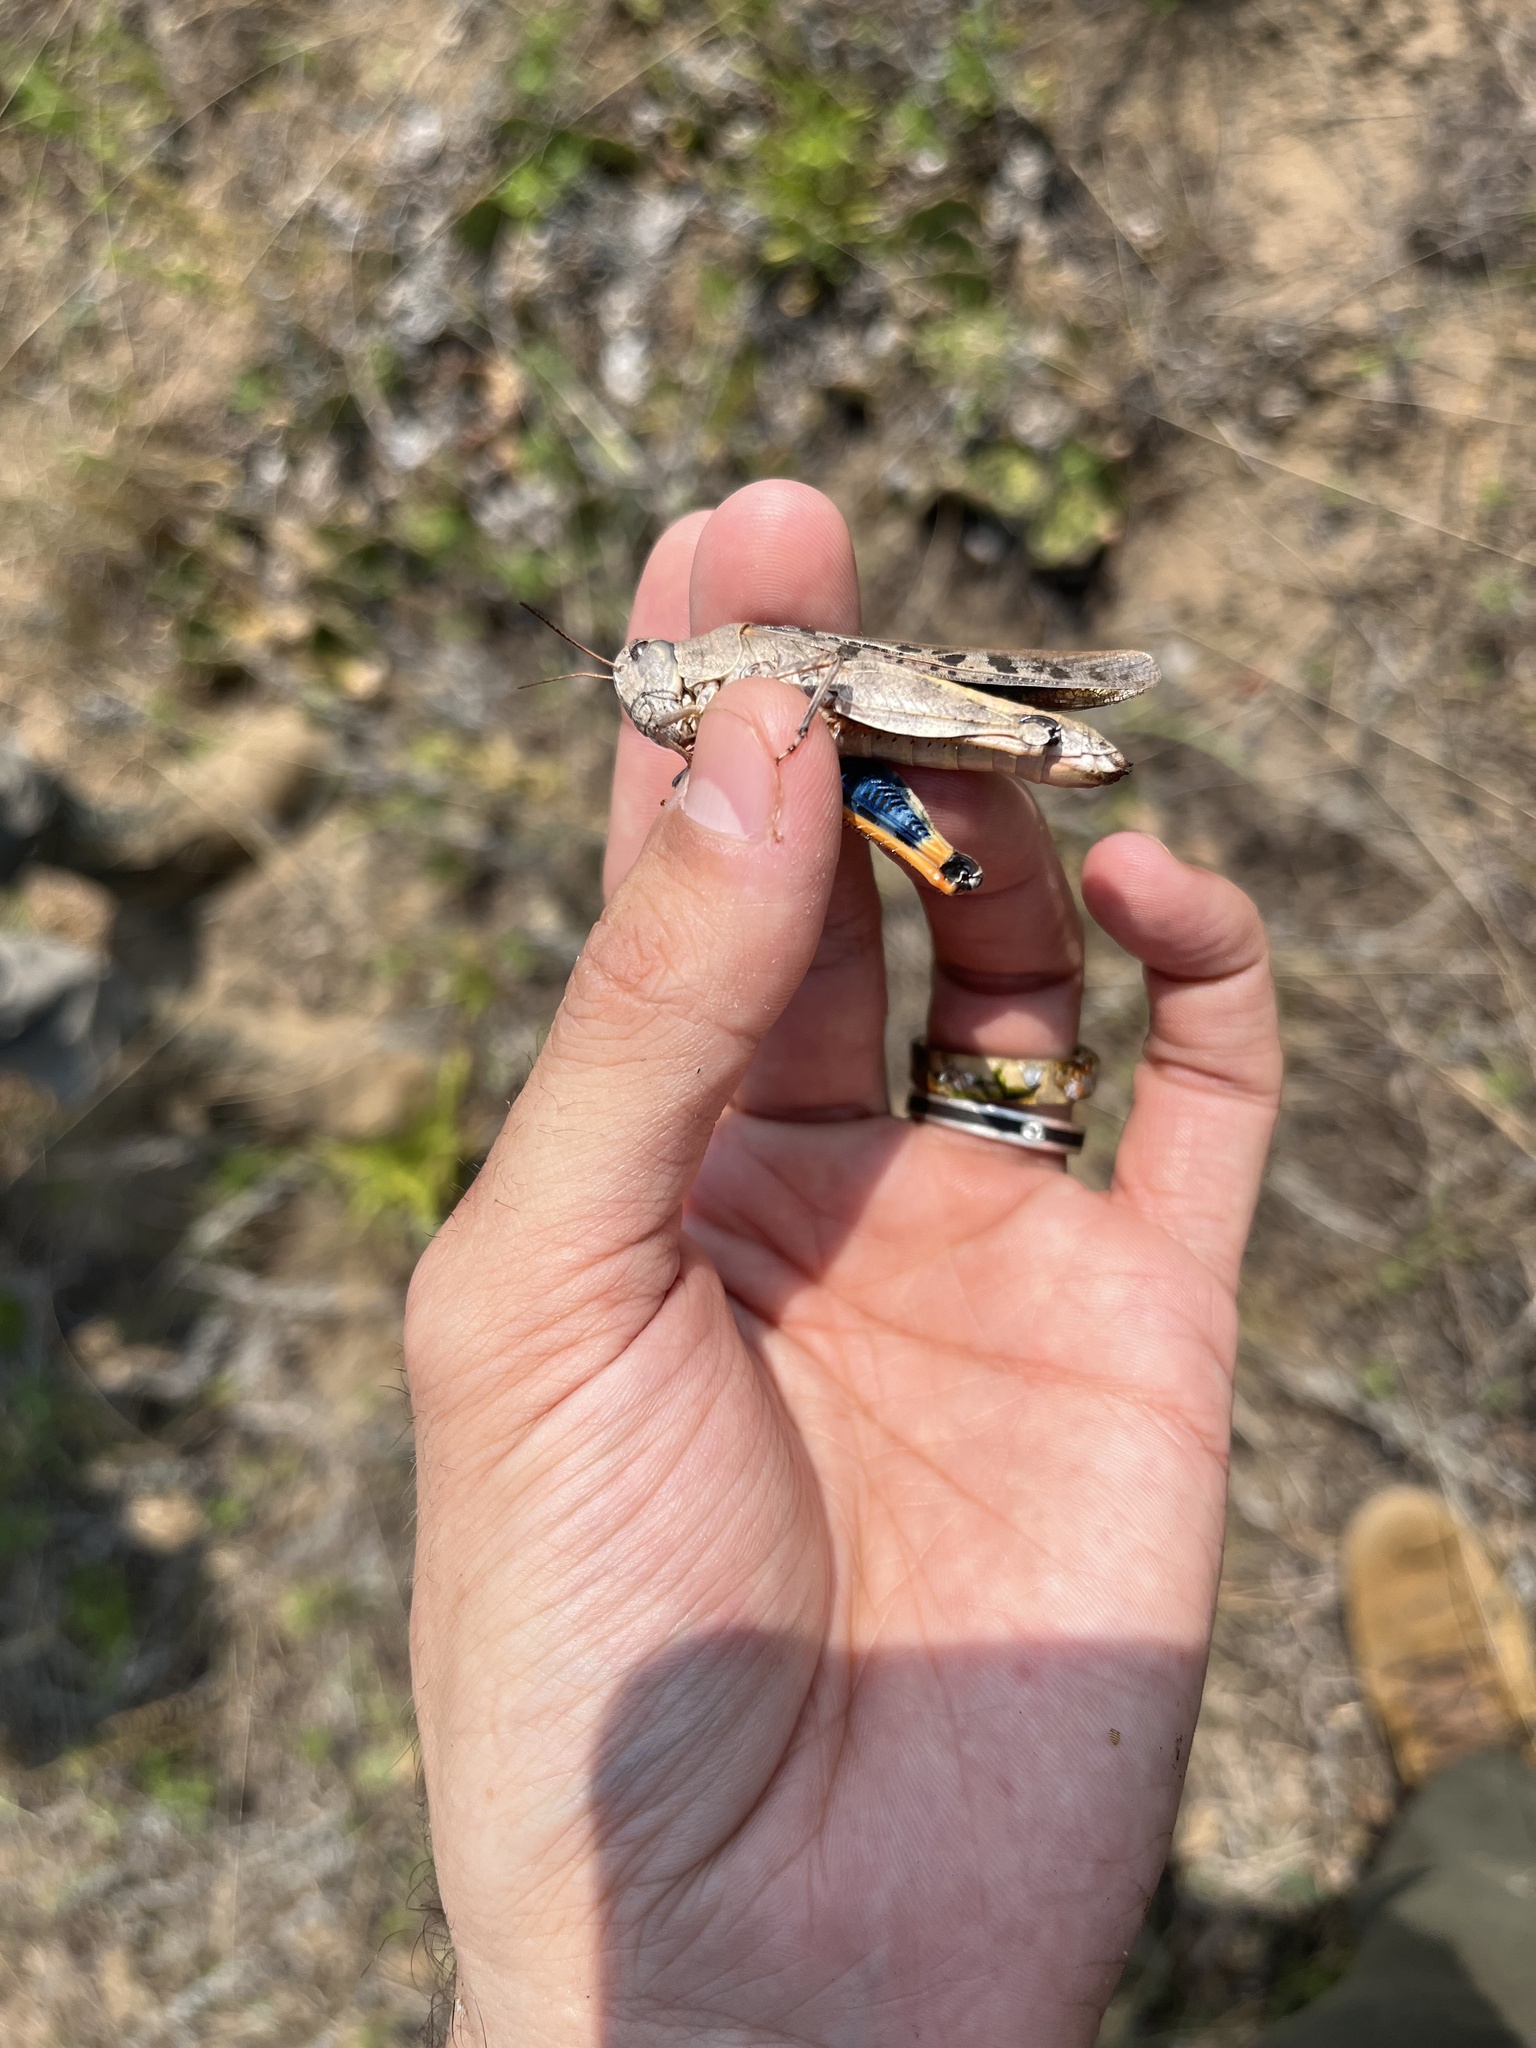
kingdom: Animalia
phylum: Arthropoda
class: Insecta
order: Orthoptera
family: Acrididae
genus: Pardalophora
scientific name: Pardalophora phoenicoptera
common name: Orange-winged grasshopper
